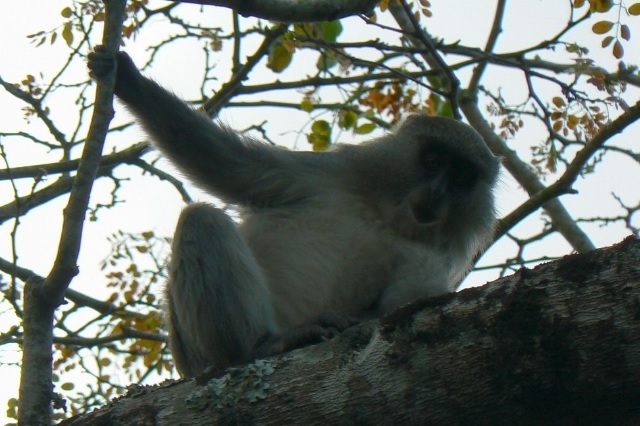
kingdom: Animalia
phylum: Chordata
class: Mammalia
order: Primates
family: Cercopithecidae
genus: Cercopithecus
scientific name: Cercopithecus mitis
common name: Blue monkey
